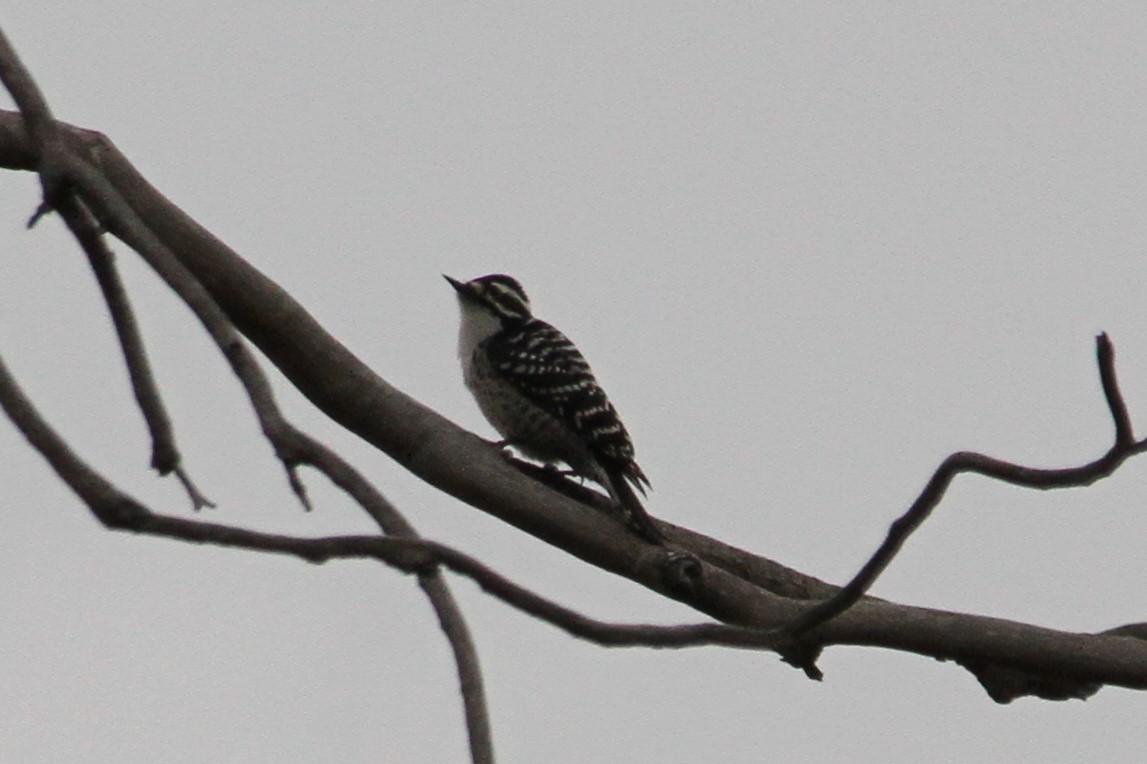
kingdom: Animalia
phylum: Chordata
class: Aves
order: Piciformes
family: Picidae
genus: Dryobates
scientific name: Dryobates nuttallii
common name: Nuttall's woodpecker
